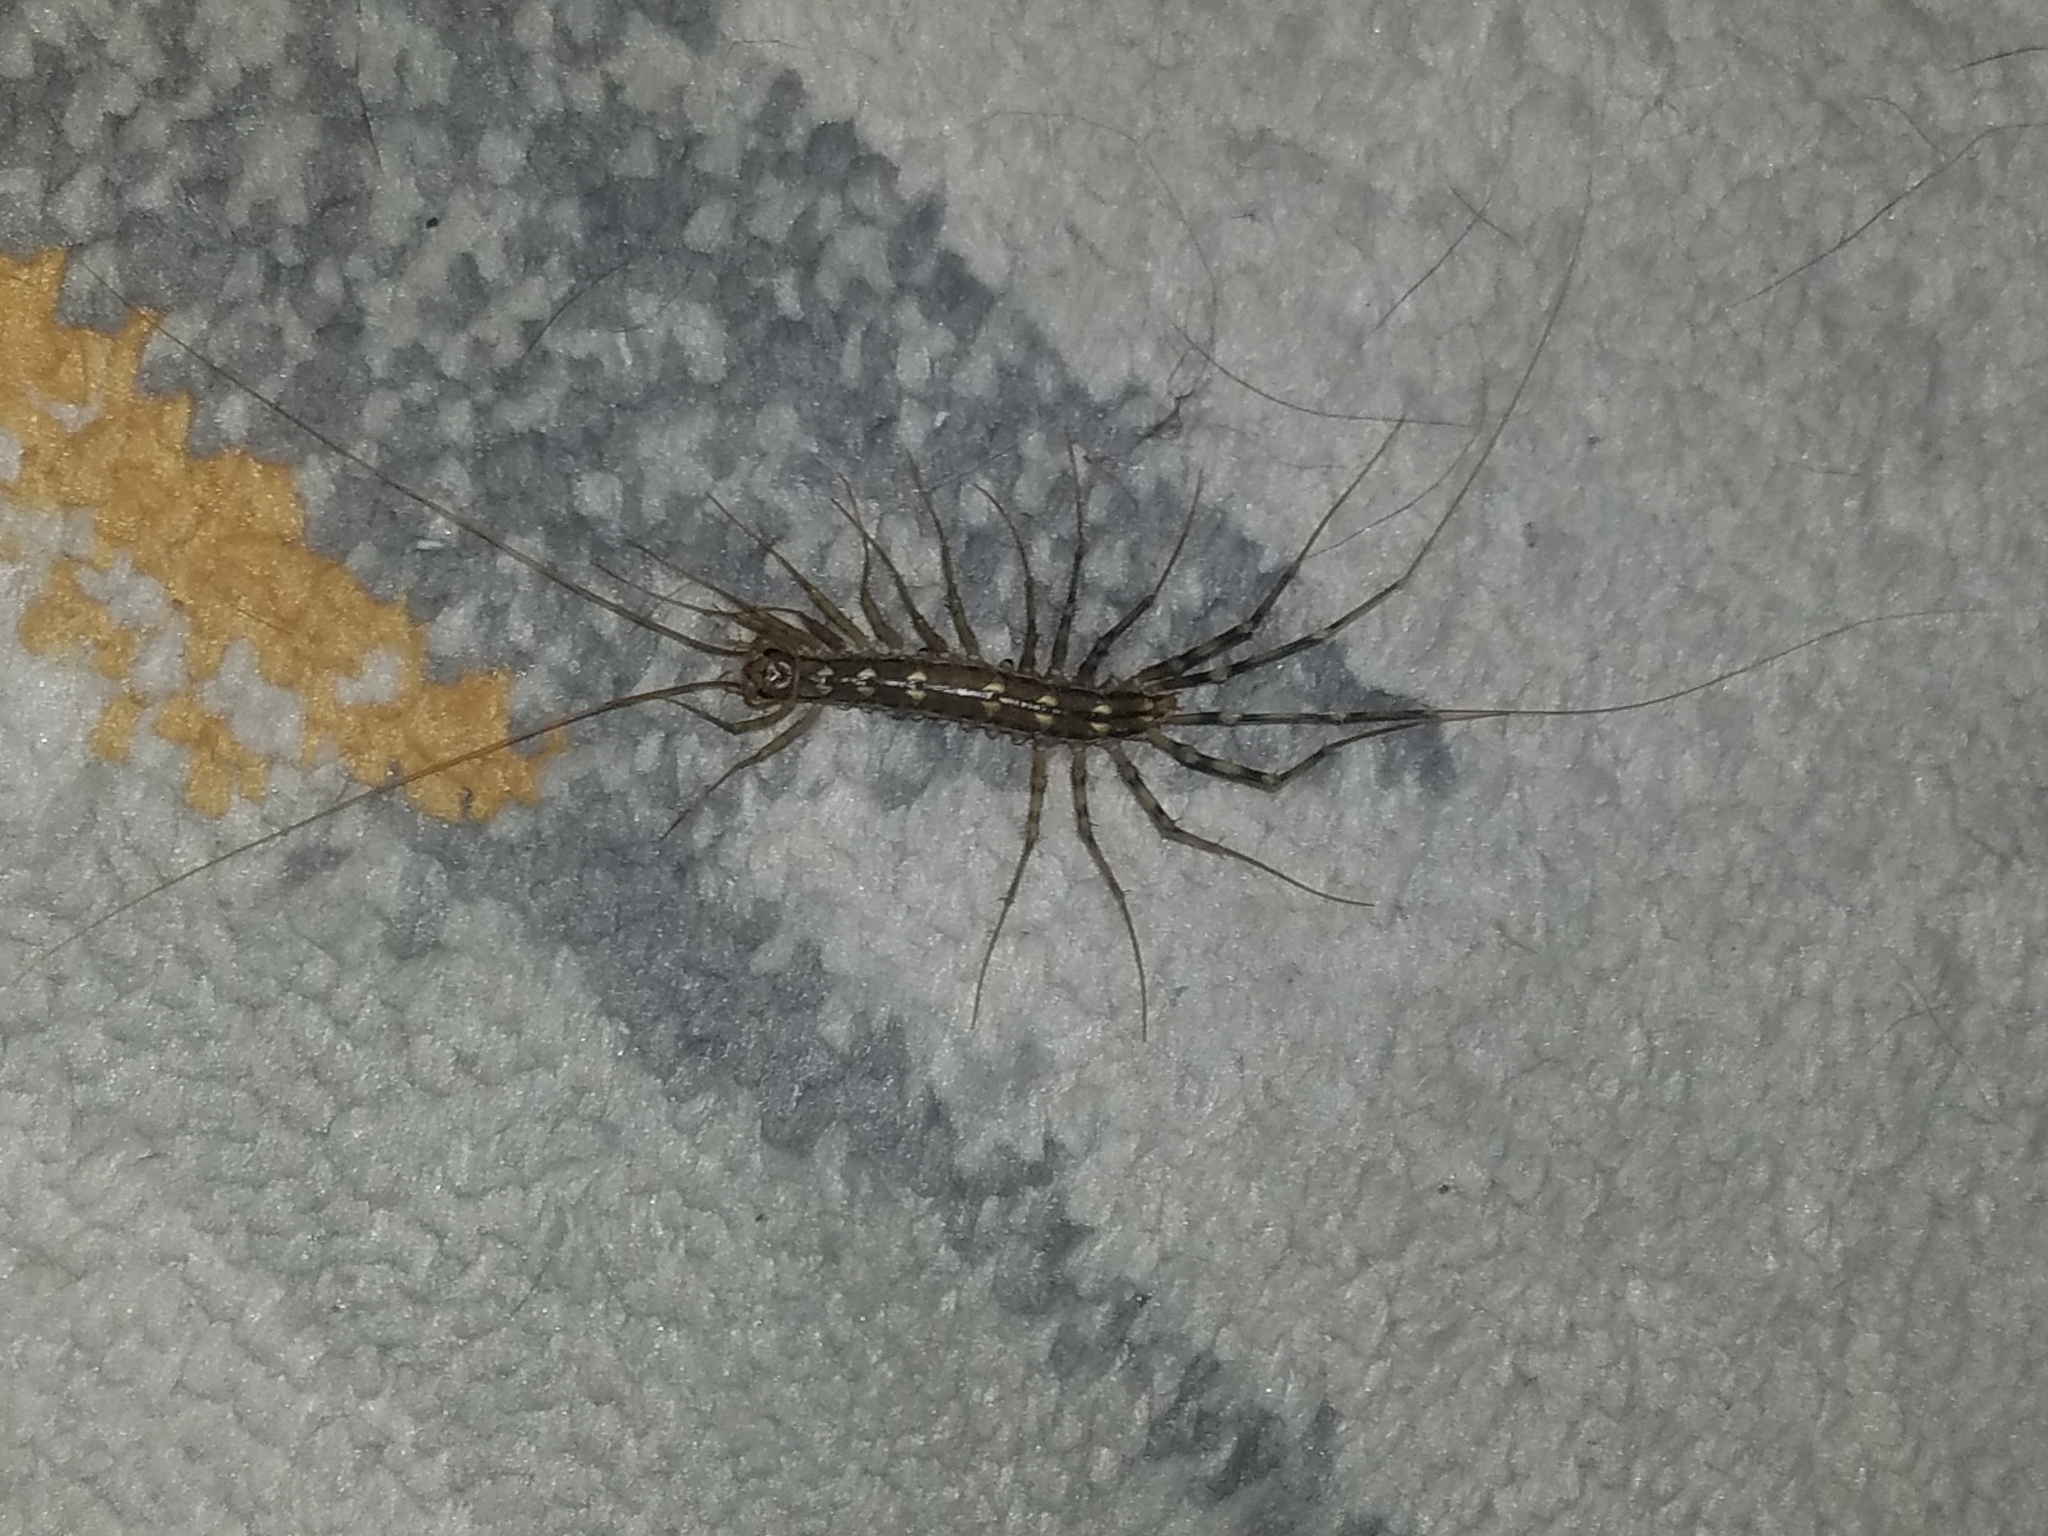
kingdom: Animalia
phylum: Arthropoda
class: Chilopoda
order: Scutigeromorpha
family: Scutigeridae
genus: Scutigera
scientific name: Scutigera coleoptrata
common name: House centipede
